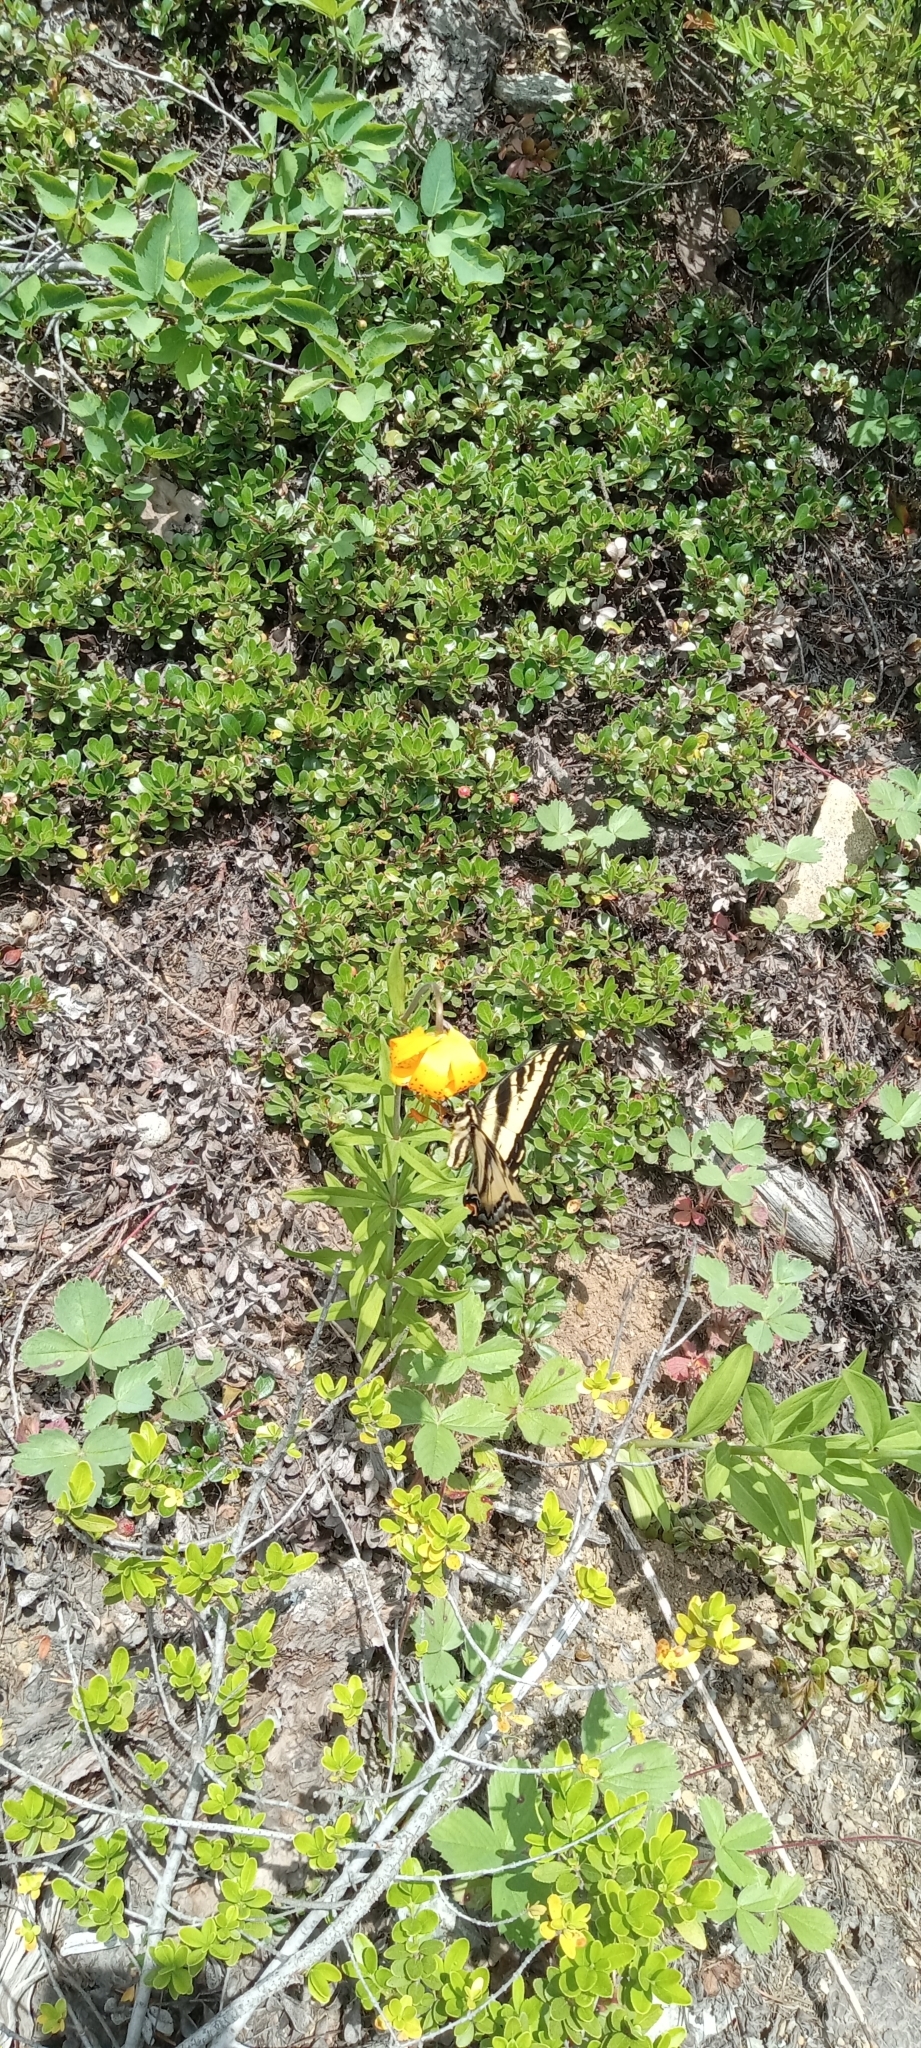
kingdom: Plantae
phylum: Tracheophyta
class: Liliopsida
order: Liliales
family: Liliaceae
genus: Lilium
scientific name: Lilium columbianum
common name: Columbia lily
